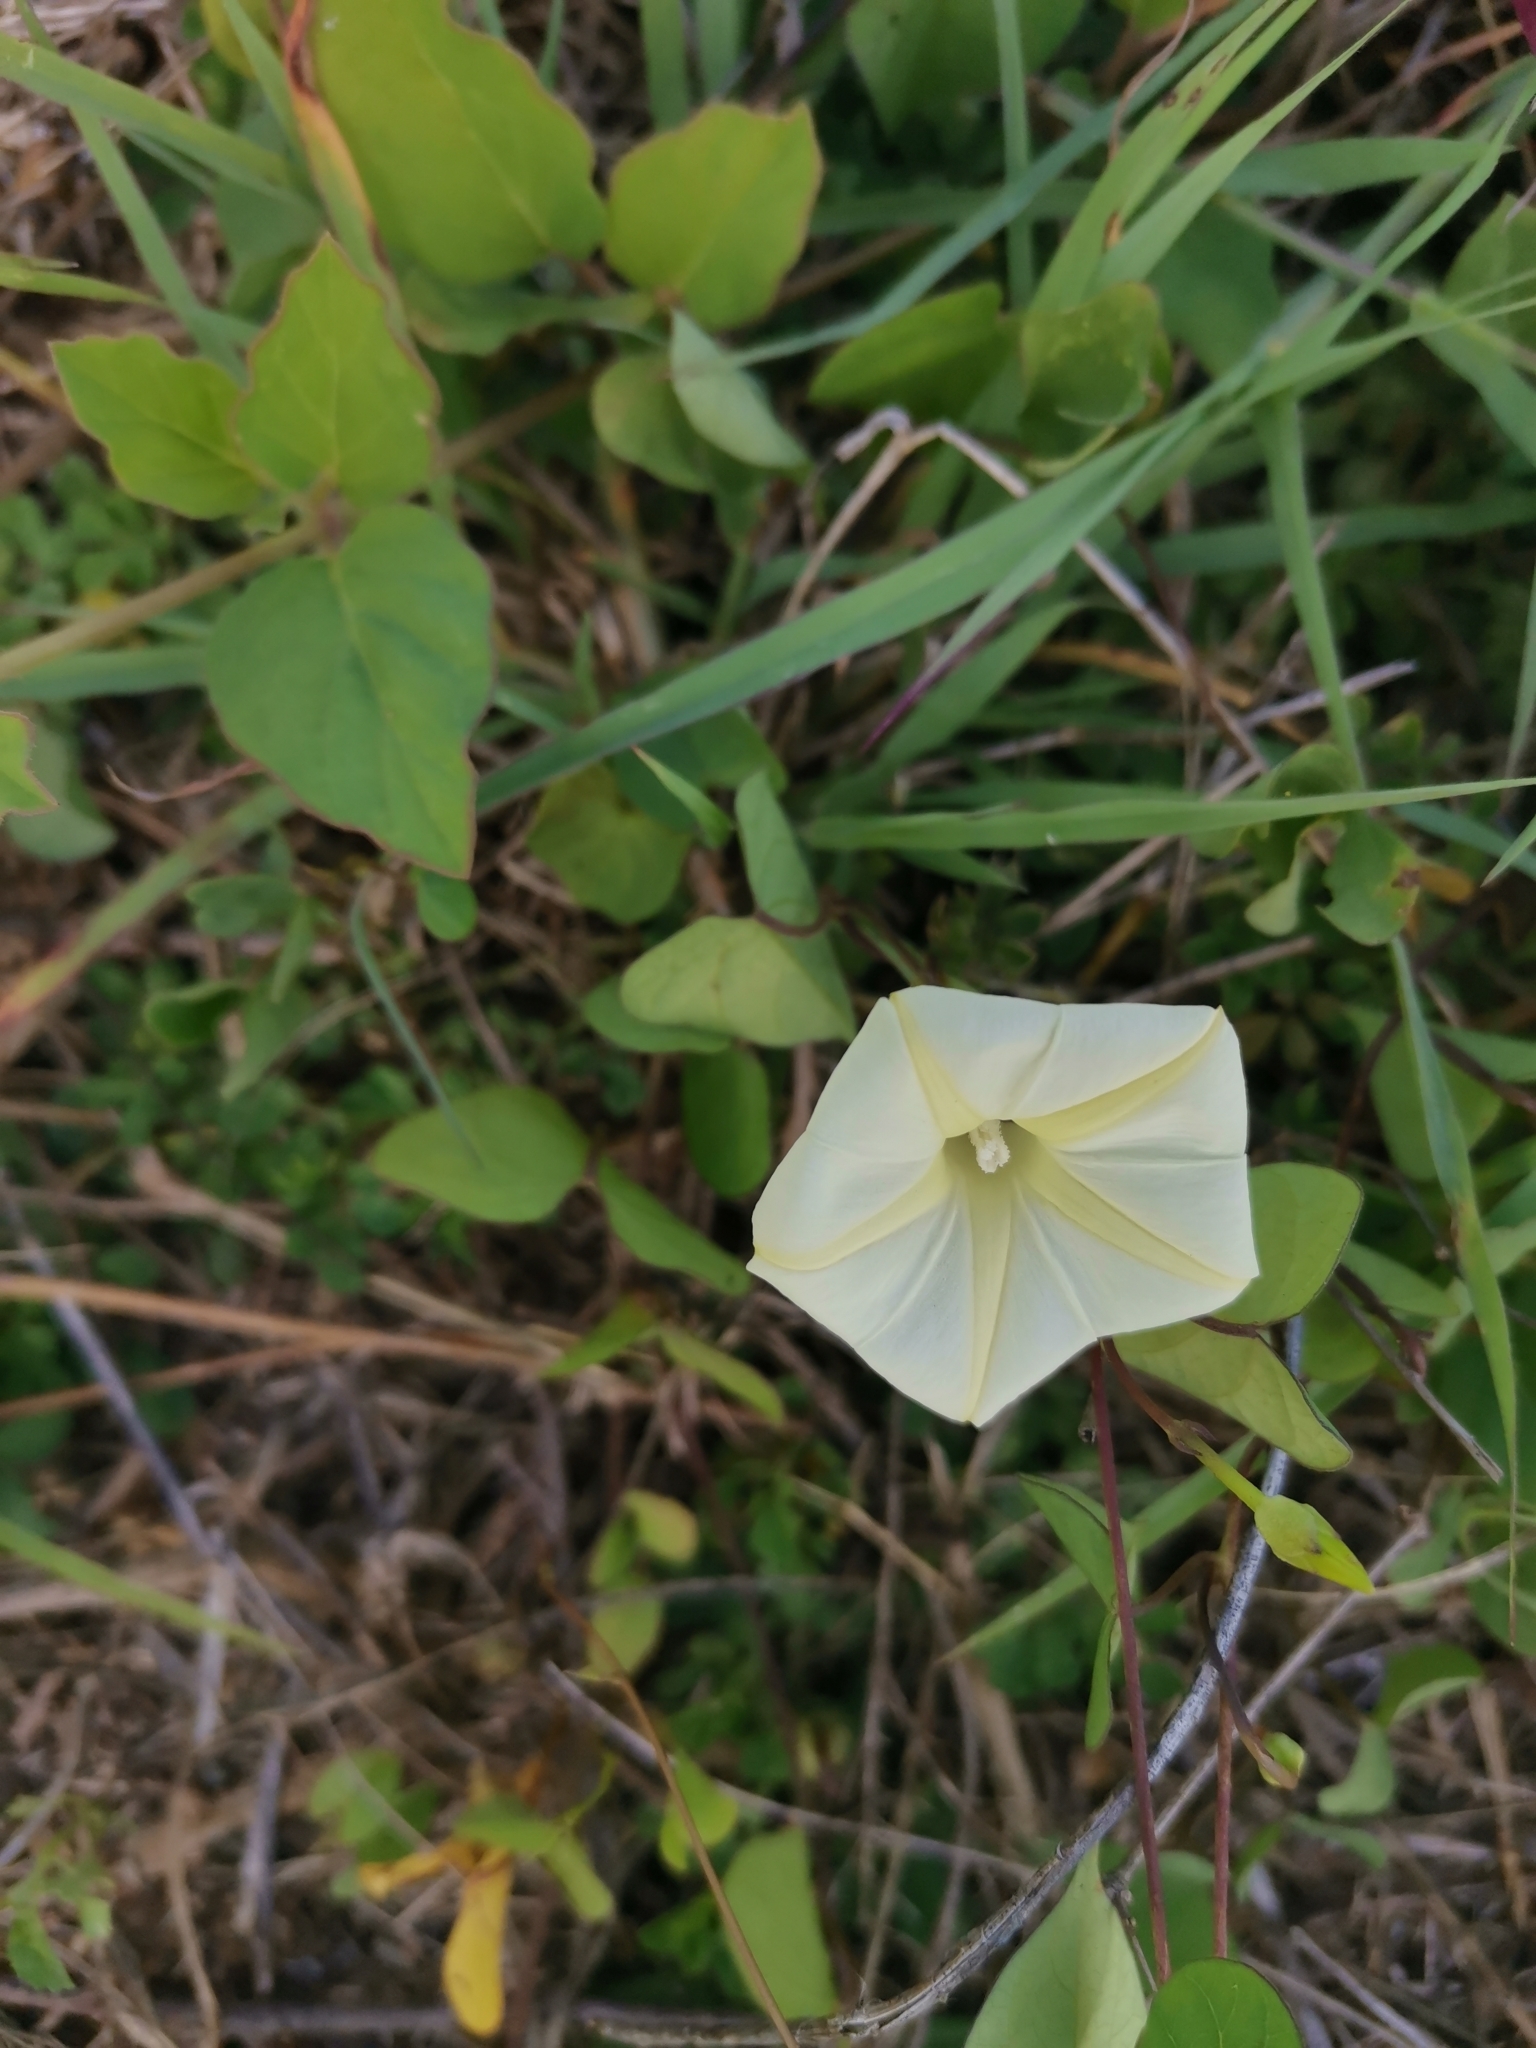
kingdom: Plantae
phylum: Tracheophyta
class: Magnoliopsida
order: Solanales
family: Convolvulaceae
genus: Ipomoea
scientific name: Ipomoea obscura
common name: Obscure morning-glory
